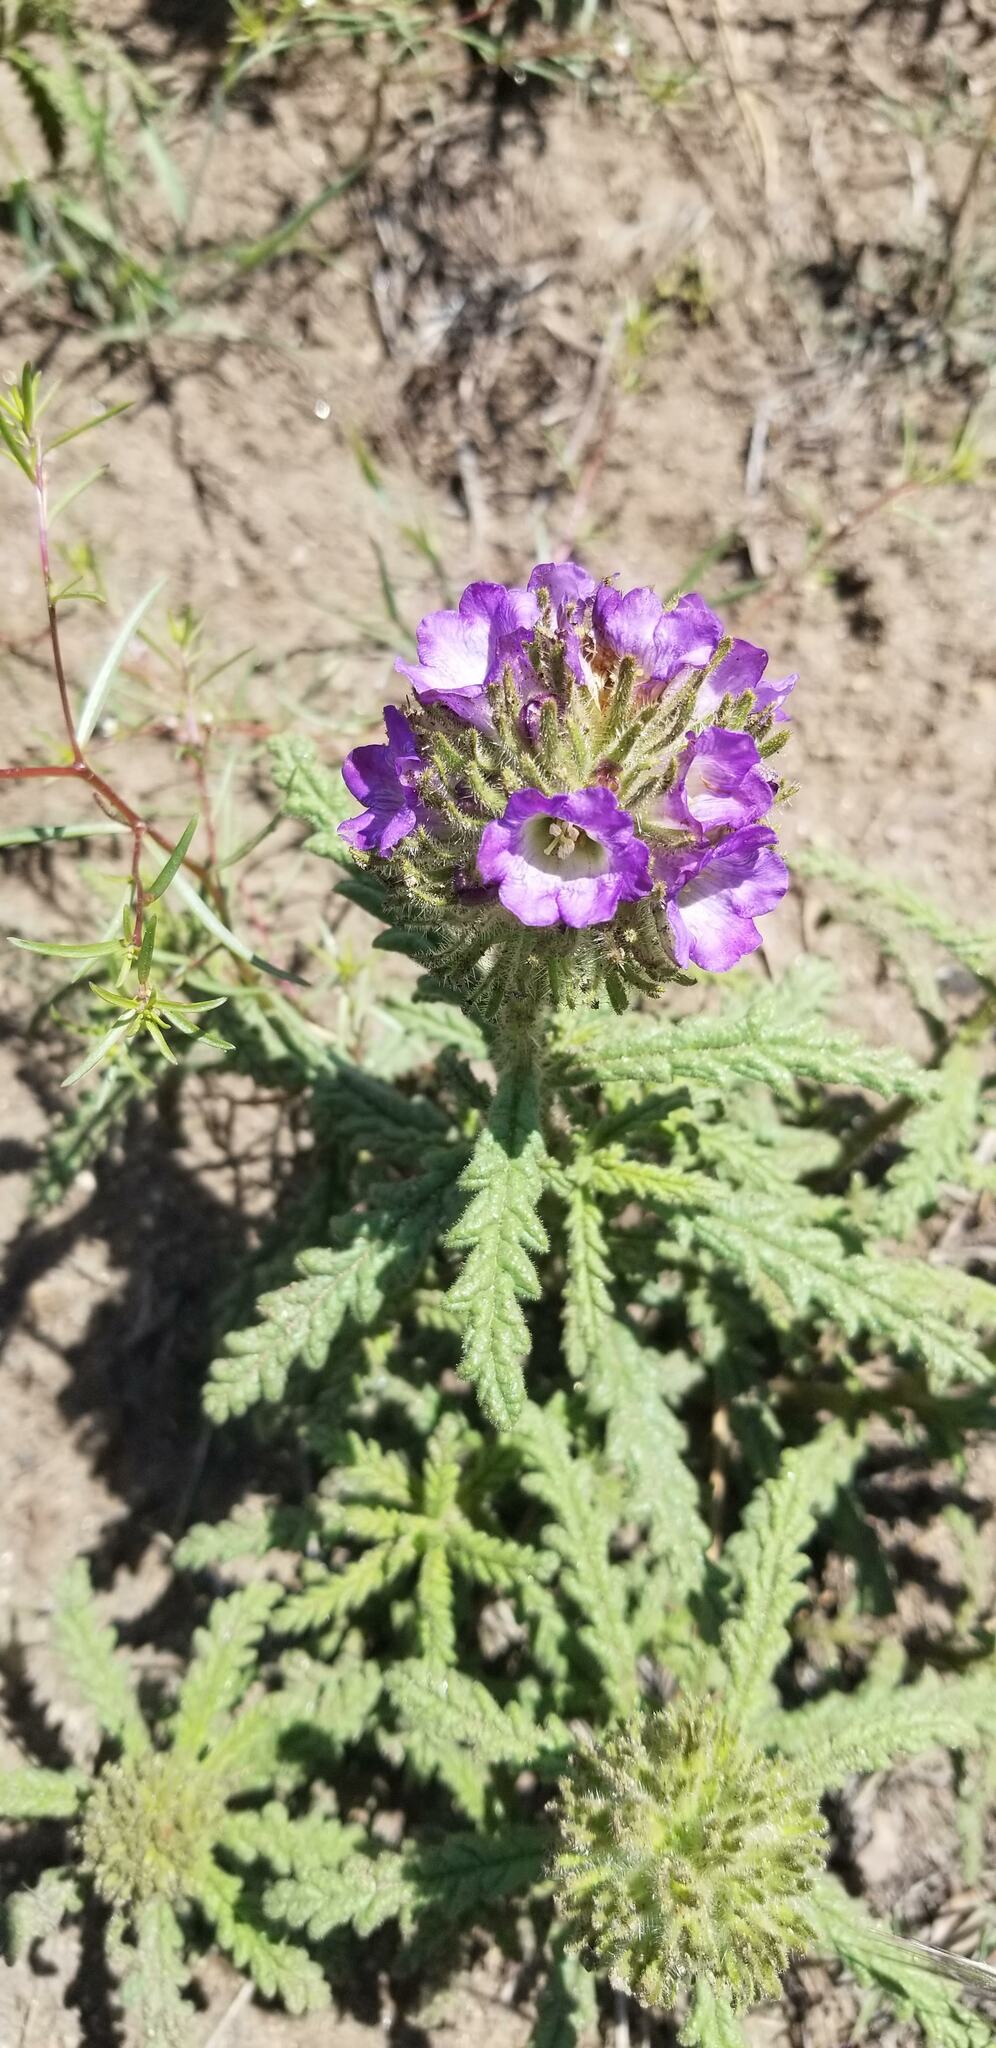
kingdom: Plantae
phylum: Tracheophyta
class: Magnoliopsida
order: Boraginales
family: Namaceae
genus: Nama
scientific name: Nama rothrockii
